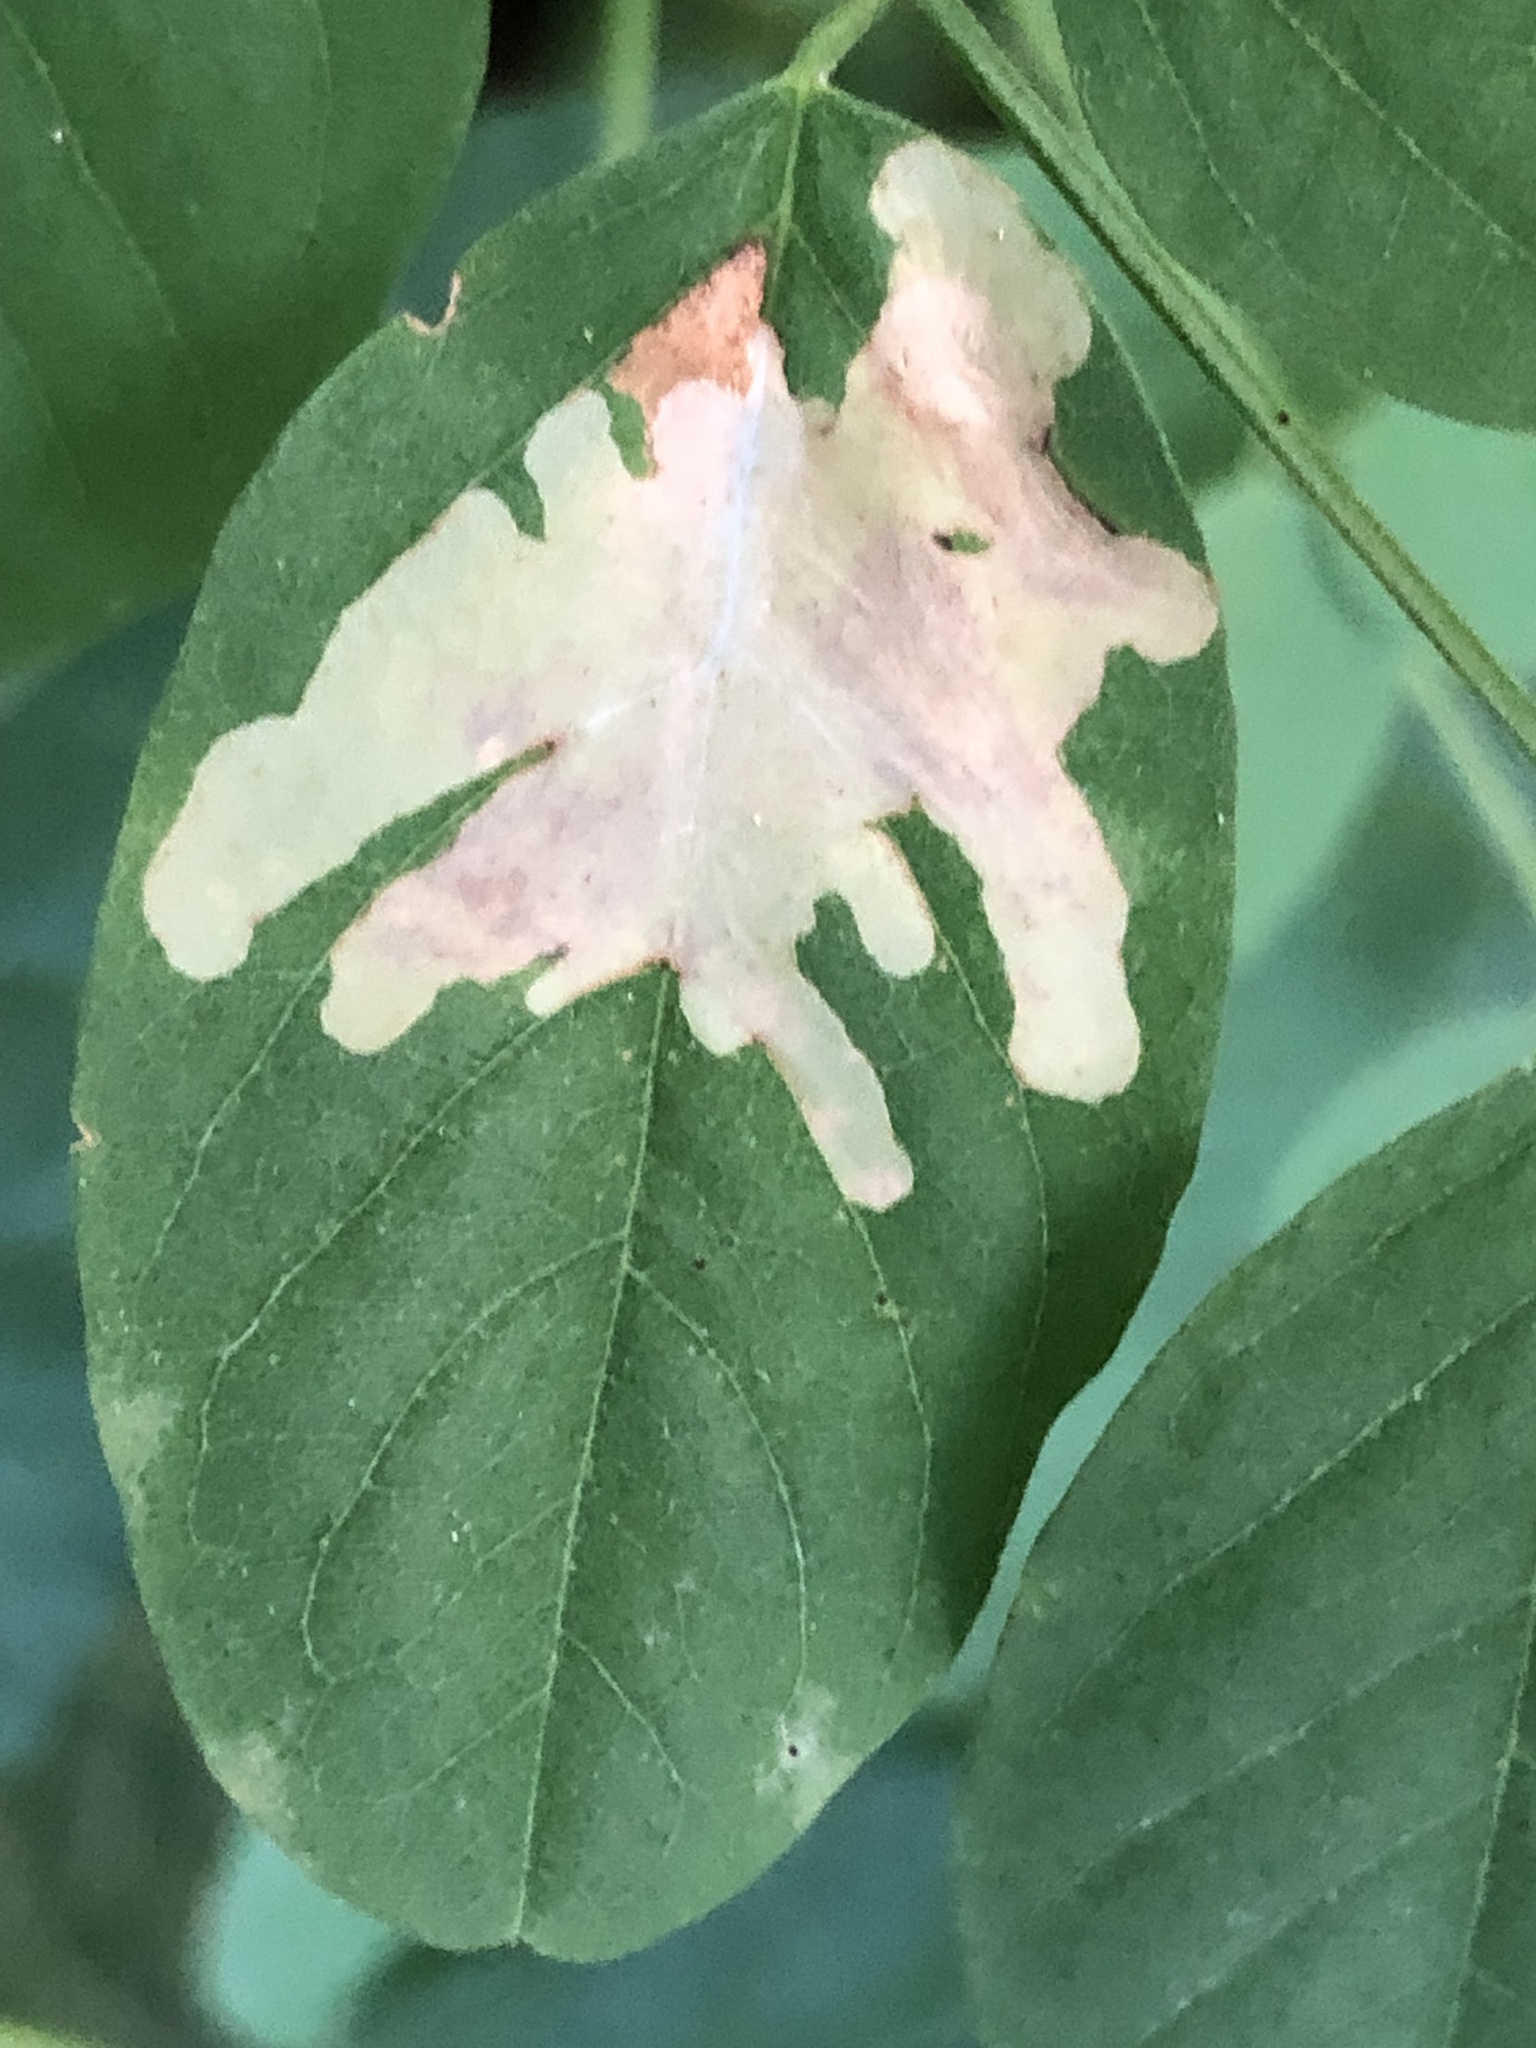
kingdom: Animalia
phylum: Arthropoda
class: Insecta
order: Lepidoptera
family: Gracillariidae
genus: Parectopa
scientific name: Parectopa robiniella
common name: Locust digitate leafminer
